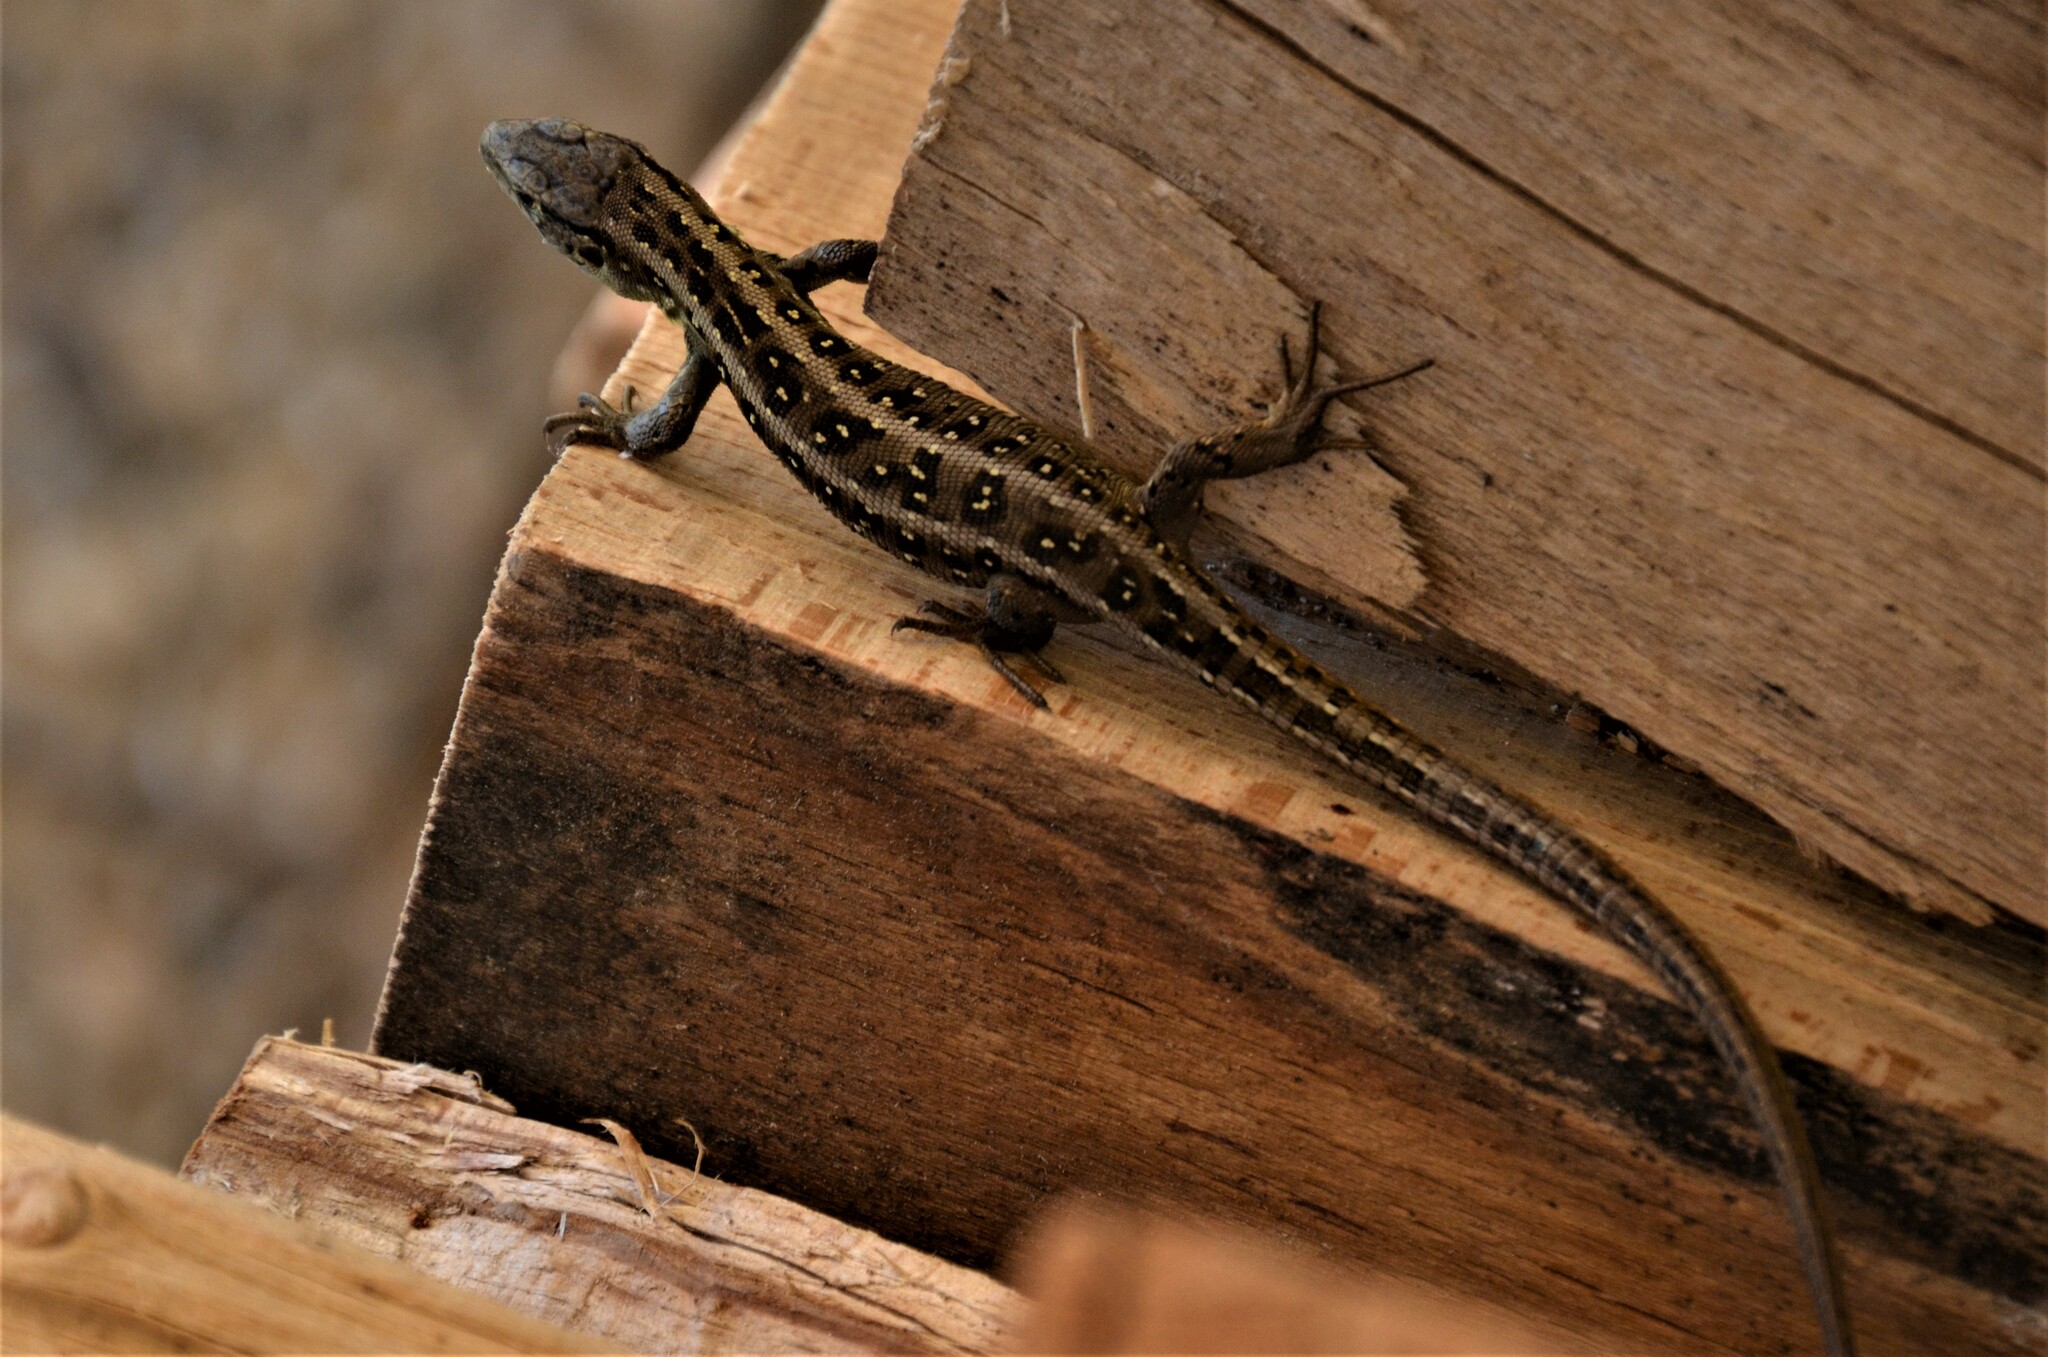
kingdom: Animalia
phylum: Chordata
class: Squamata
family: Lacertidae
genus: Lacerta
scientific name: Lacerta agilis
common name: Sand lizard
